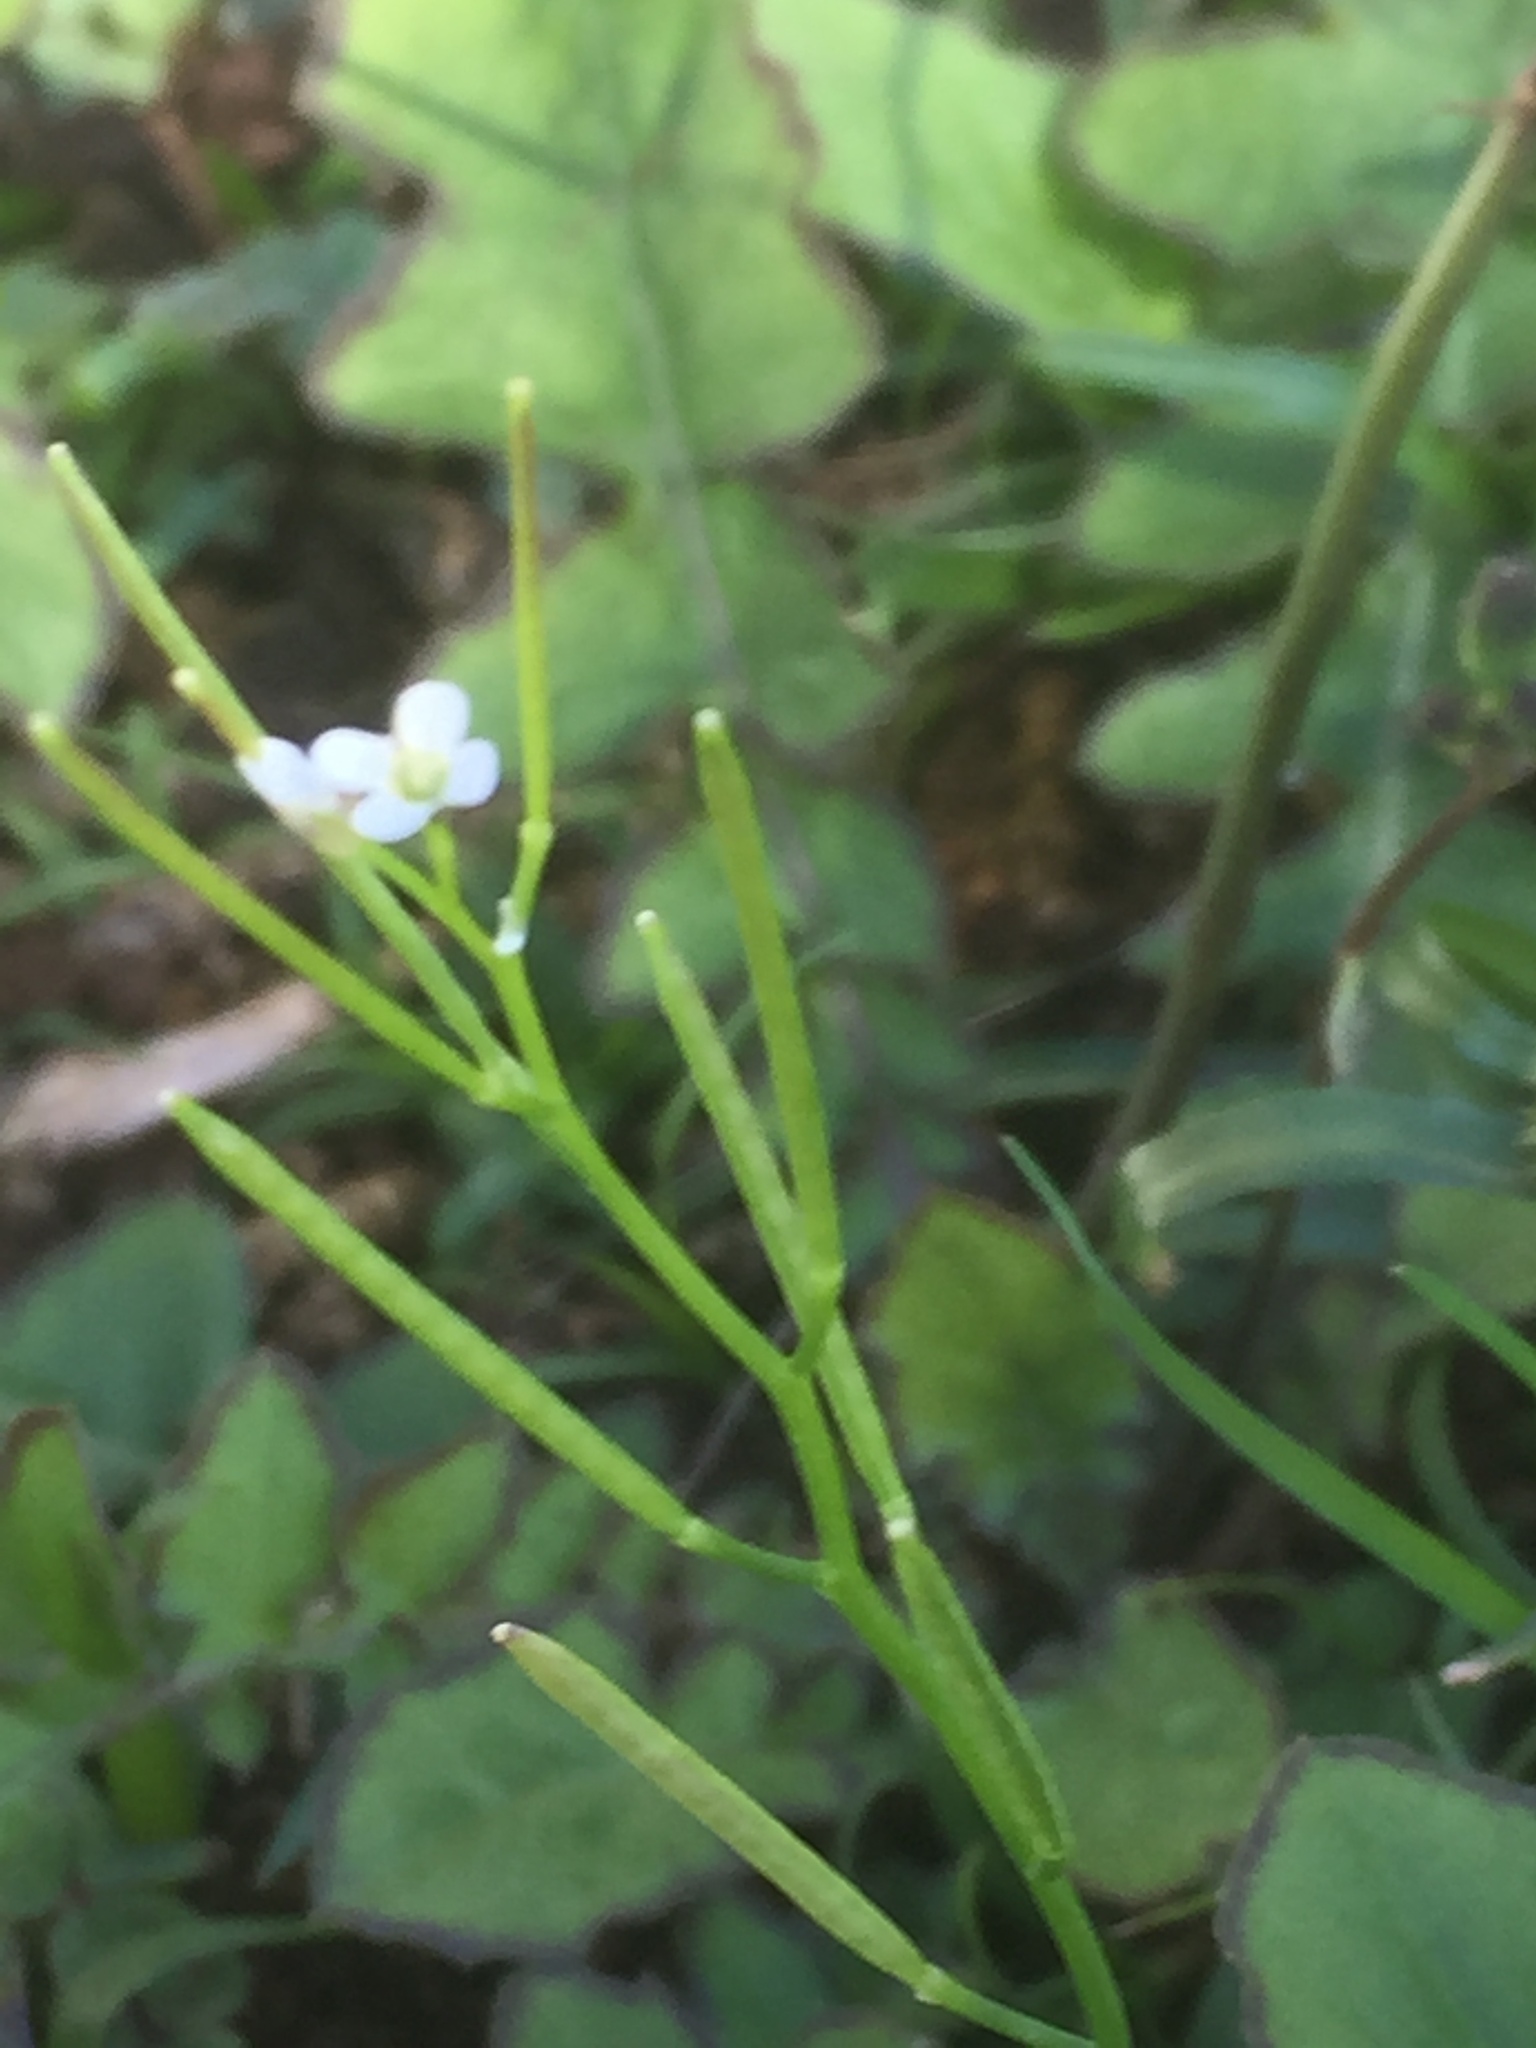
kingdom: Plantae
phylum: Tracheophyta
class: Magnoliopsida
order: Brassicales
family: Brassicaceae
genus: Matthiola
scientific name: Matthiola maderensis
